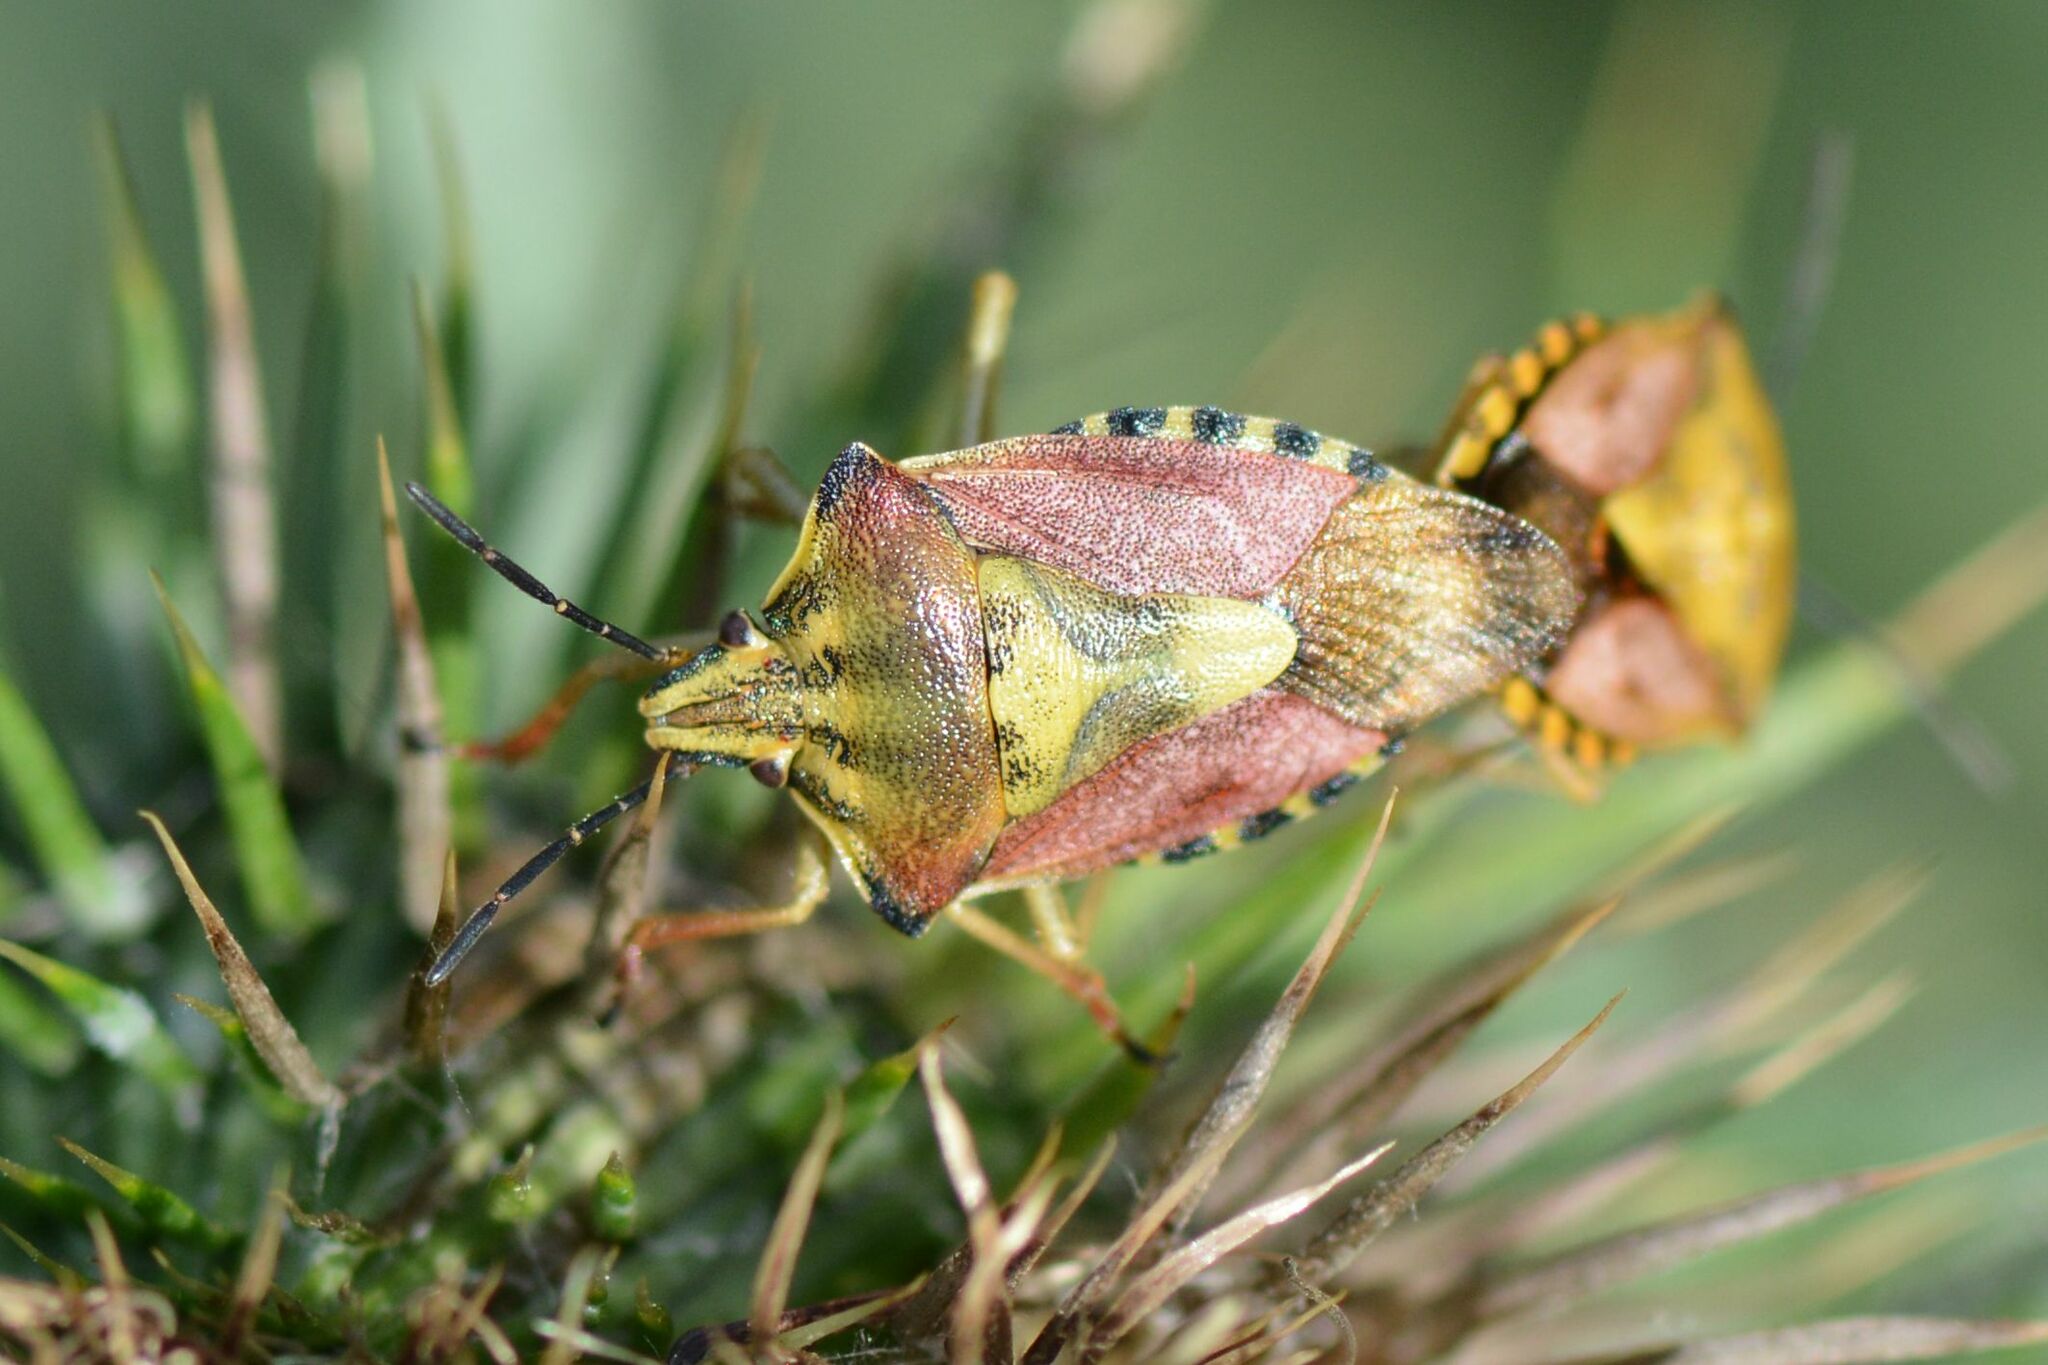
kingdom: Animalia
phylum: Arthropoda
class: Insecta
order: Hemiptera
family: Pentatomidae
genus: Carpocoris
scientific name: Carpocoris purpureipennis
